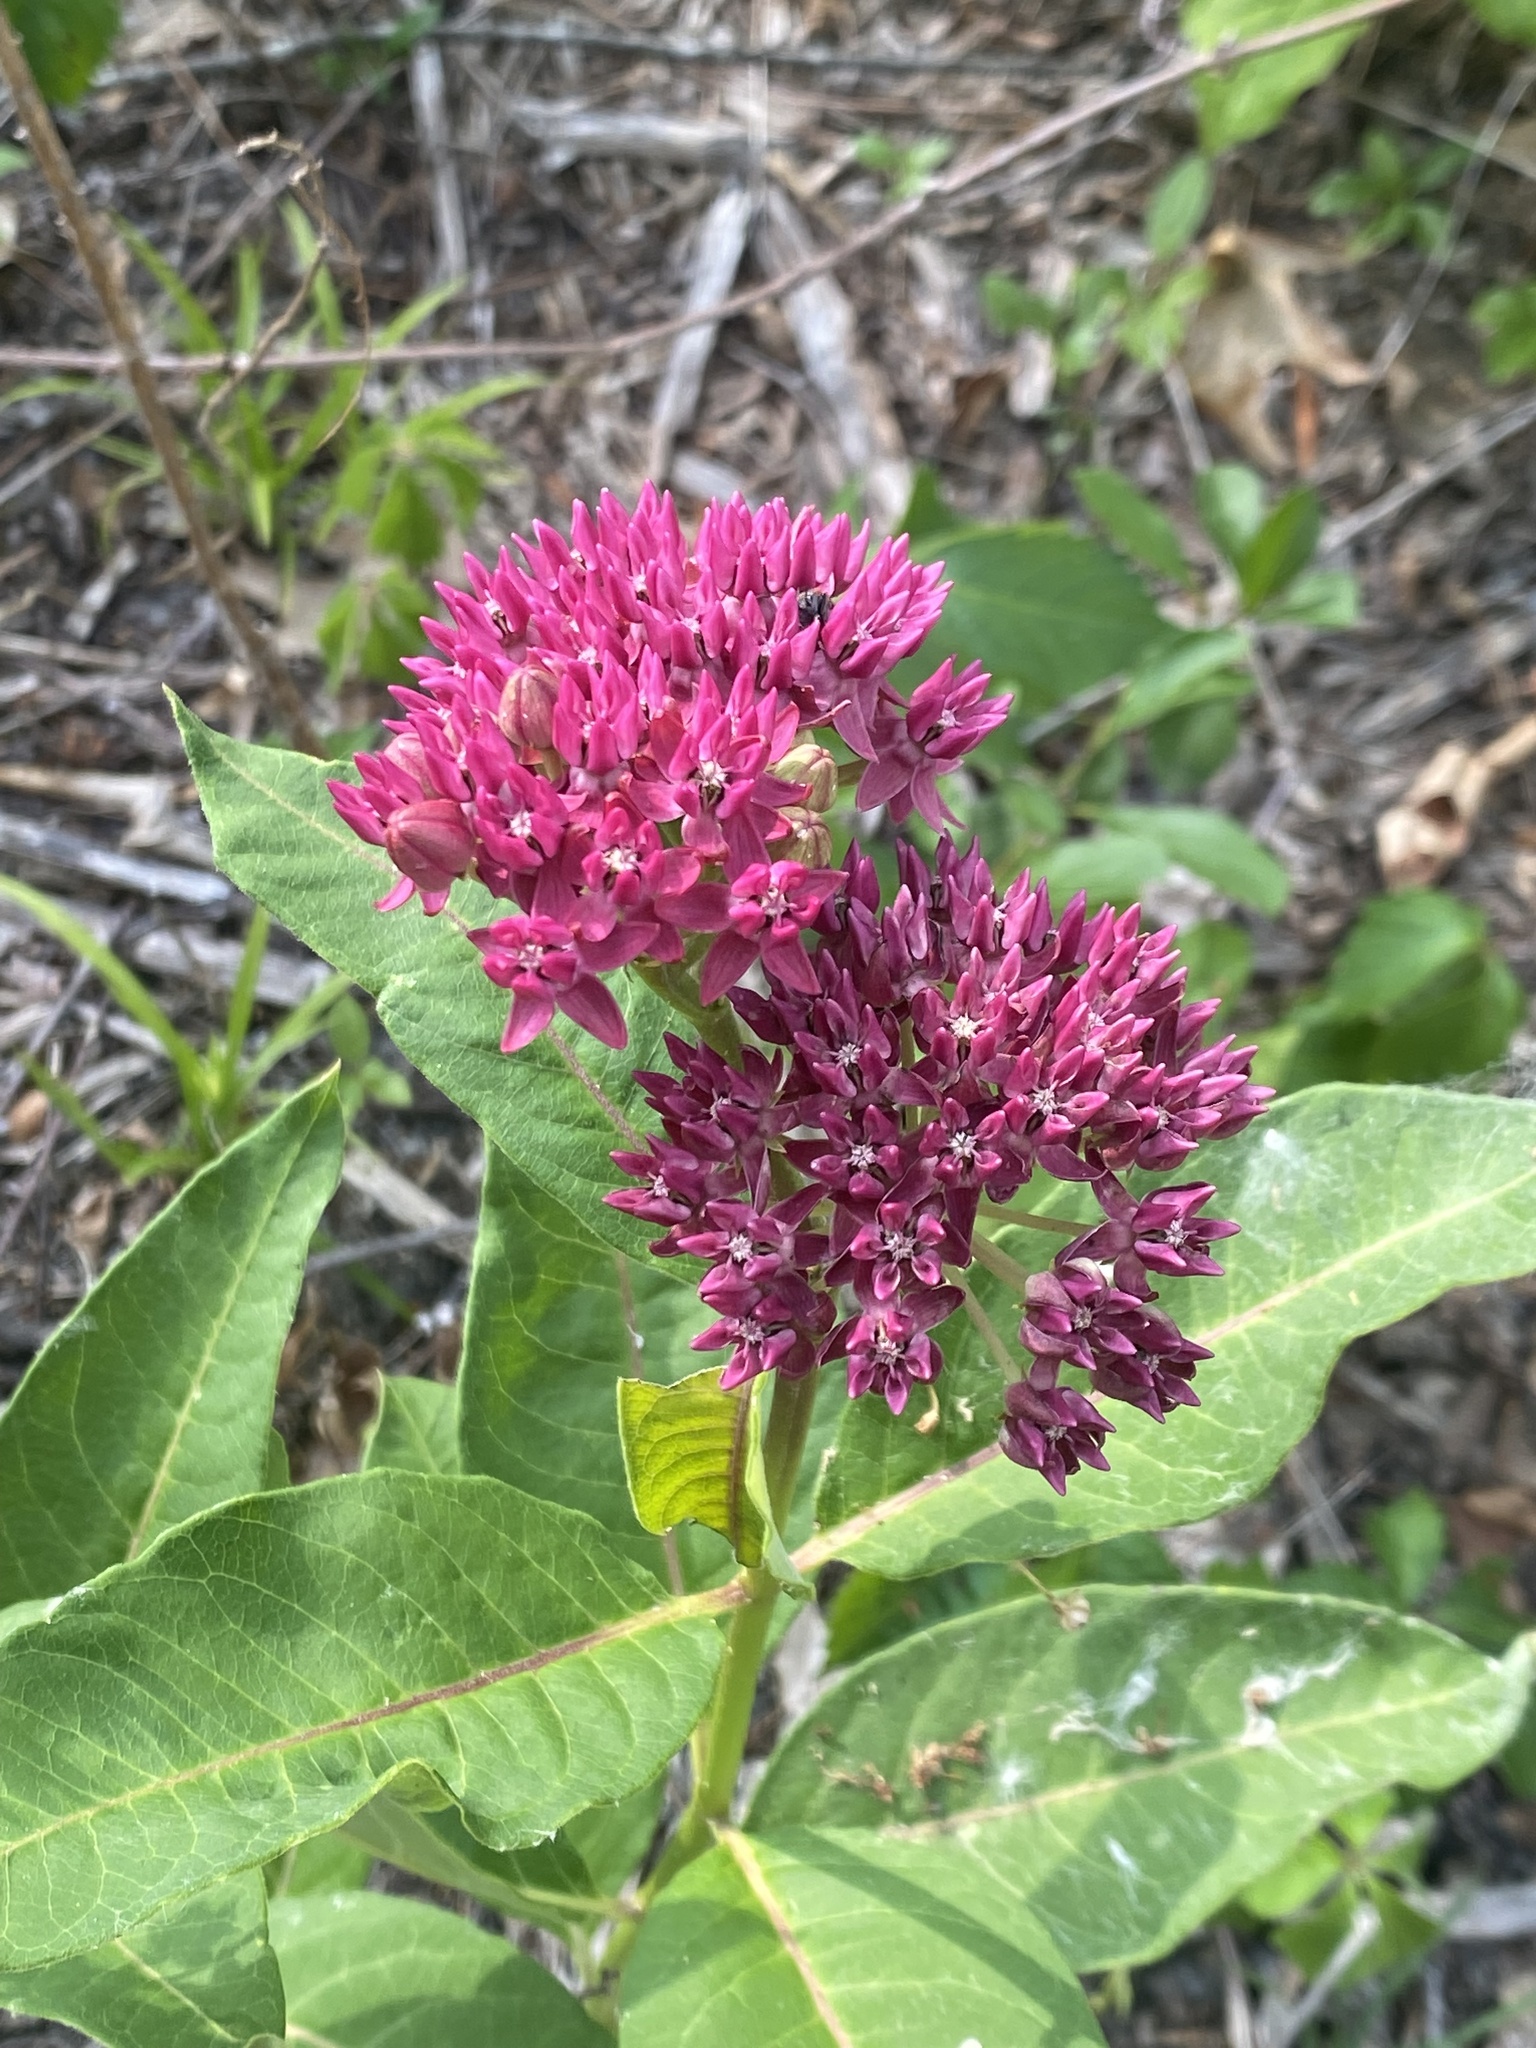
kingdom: Plantae
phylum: Tracheophyta
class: Magnoliopsida
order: Gentianales
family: Apocynaceae
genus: Asclepias
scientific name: Asclepias purpurascens
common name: Purple milkweed
